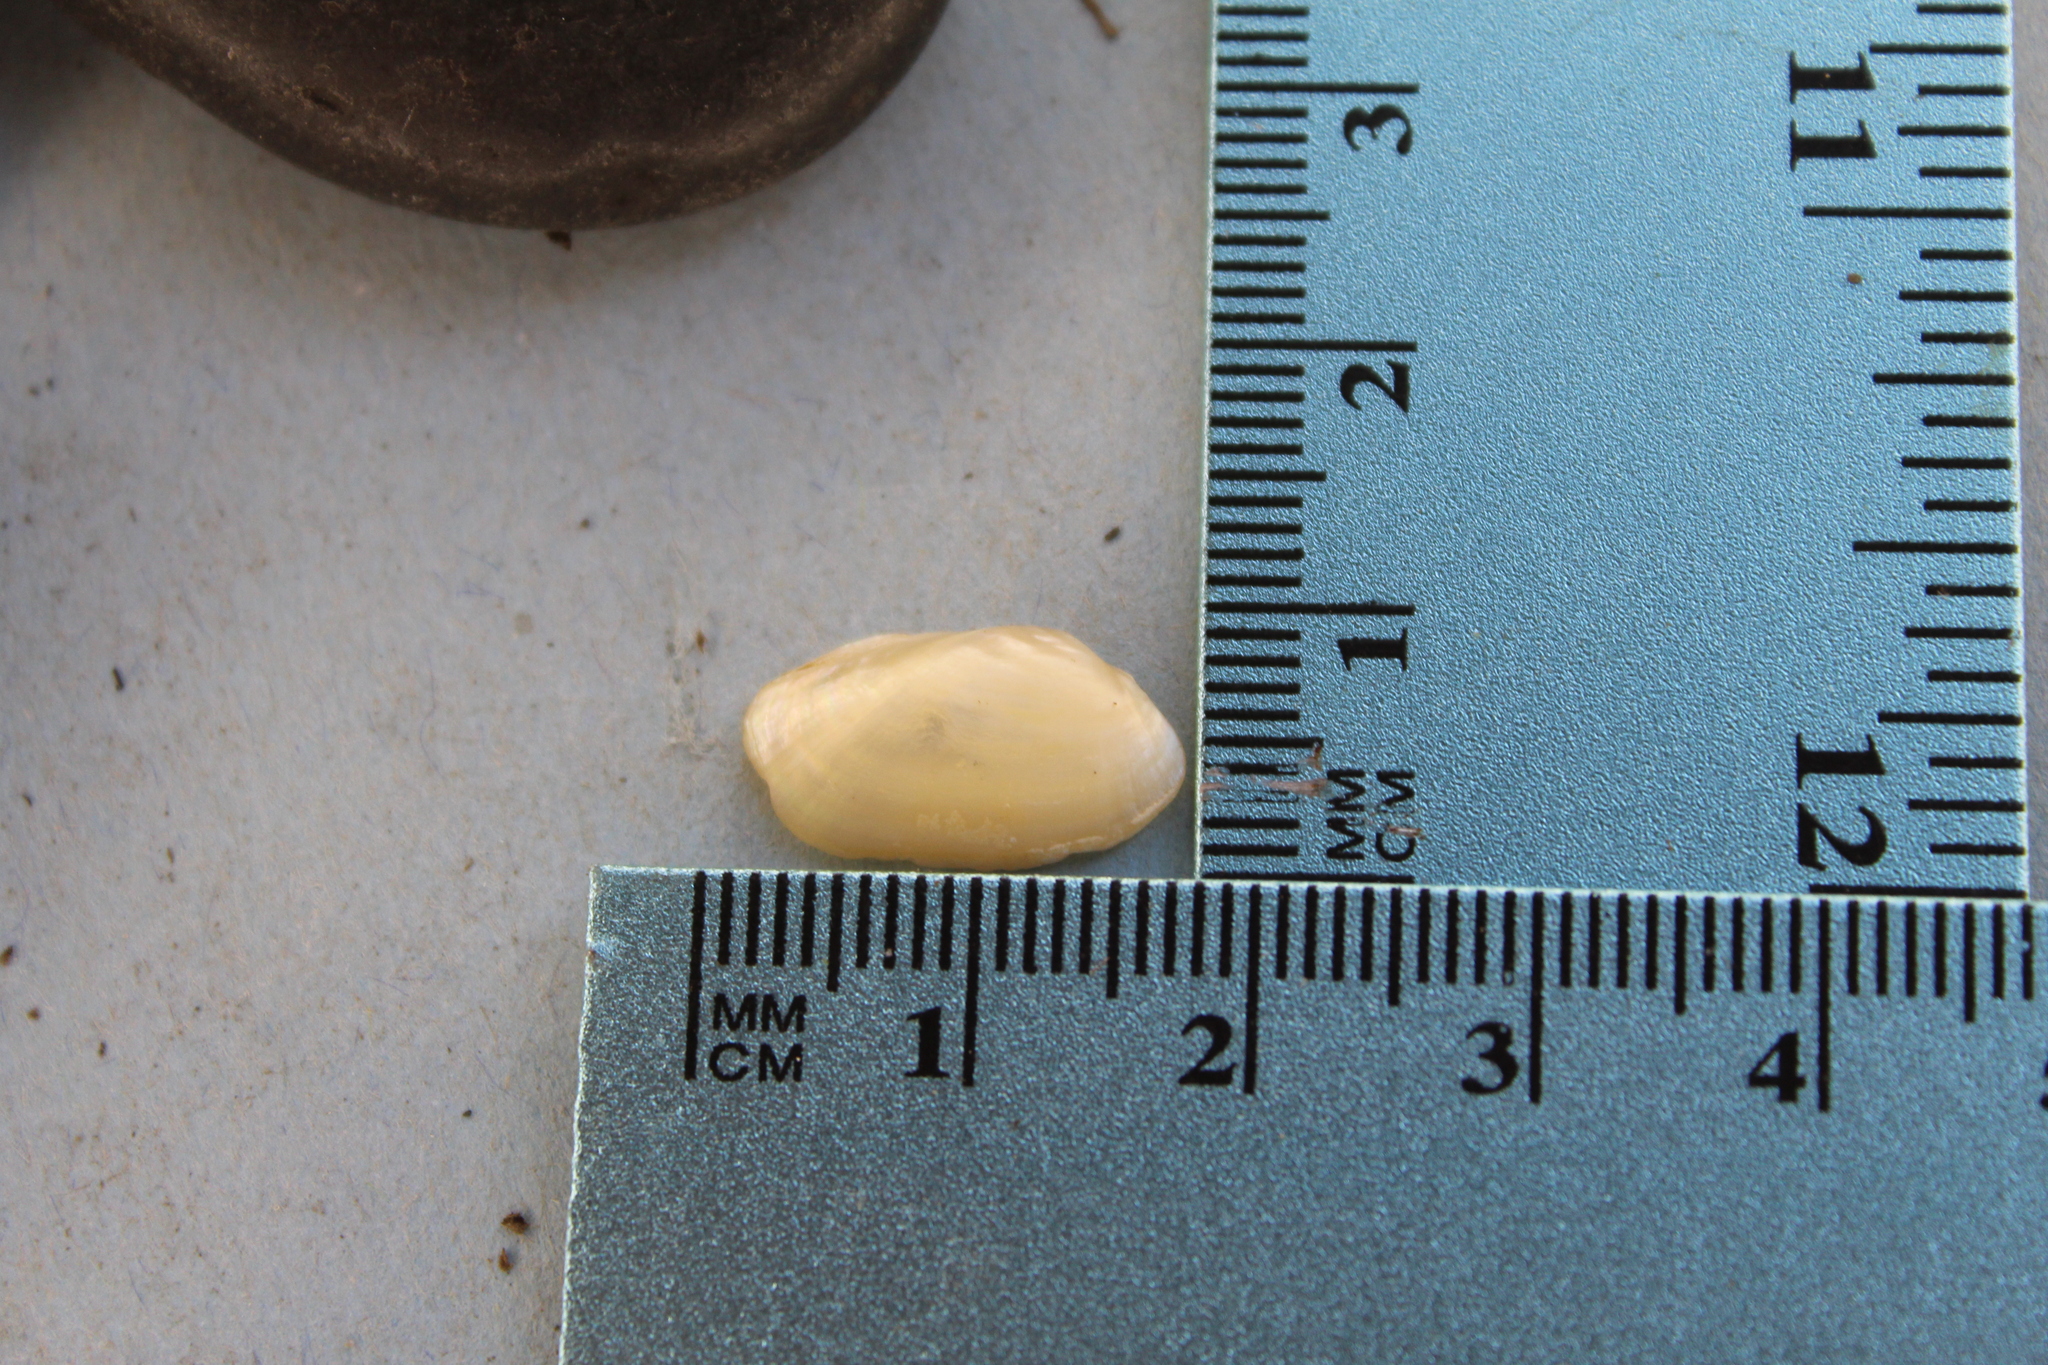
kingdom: Animalia
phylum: Mollusca
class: Bivalvia
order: Unionida
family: Unionidae
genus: Toxolasma
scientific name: Toxolasma parvum
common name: Lilliput
